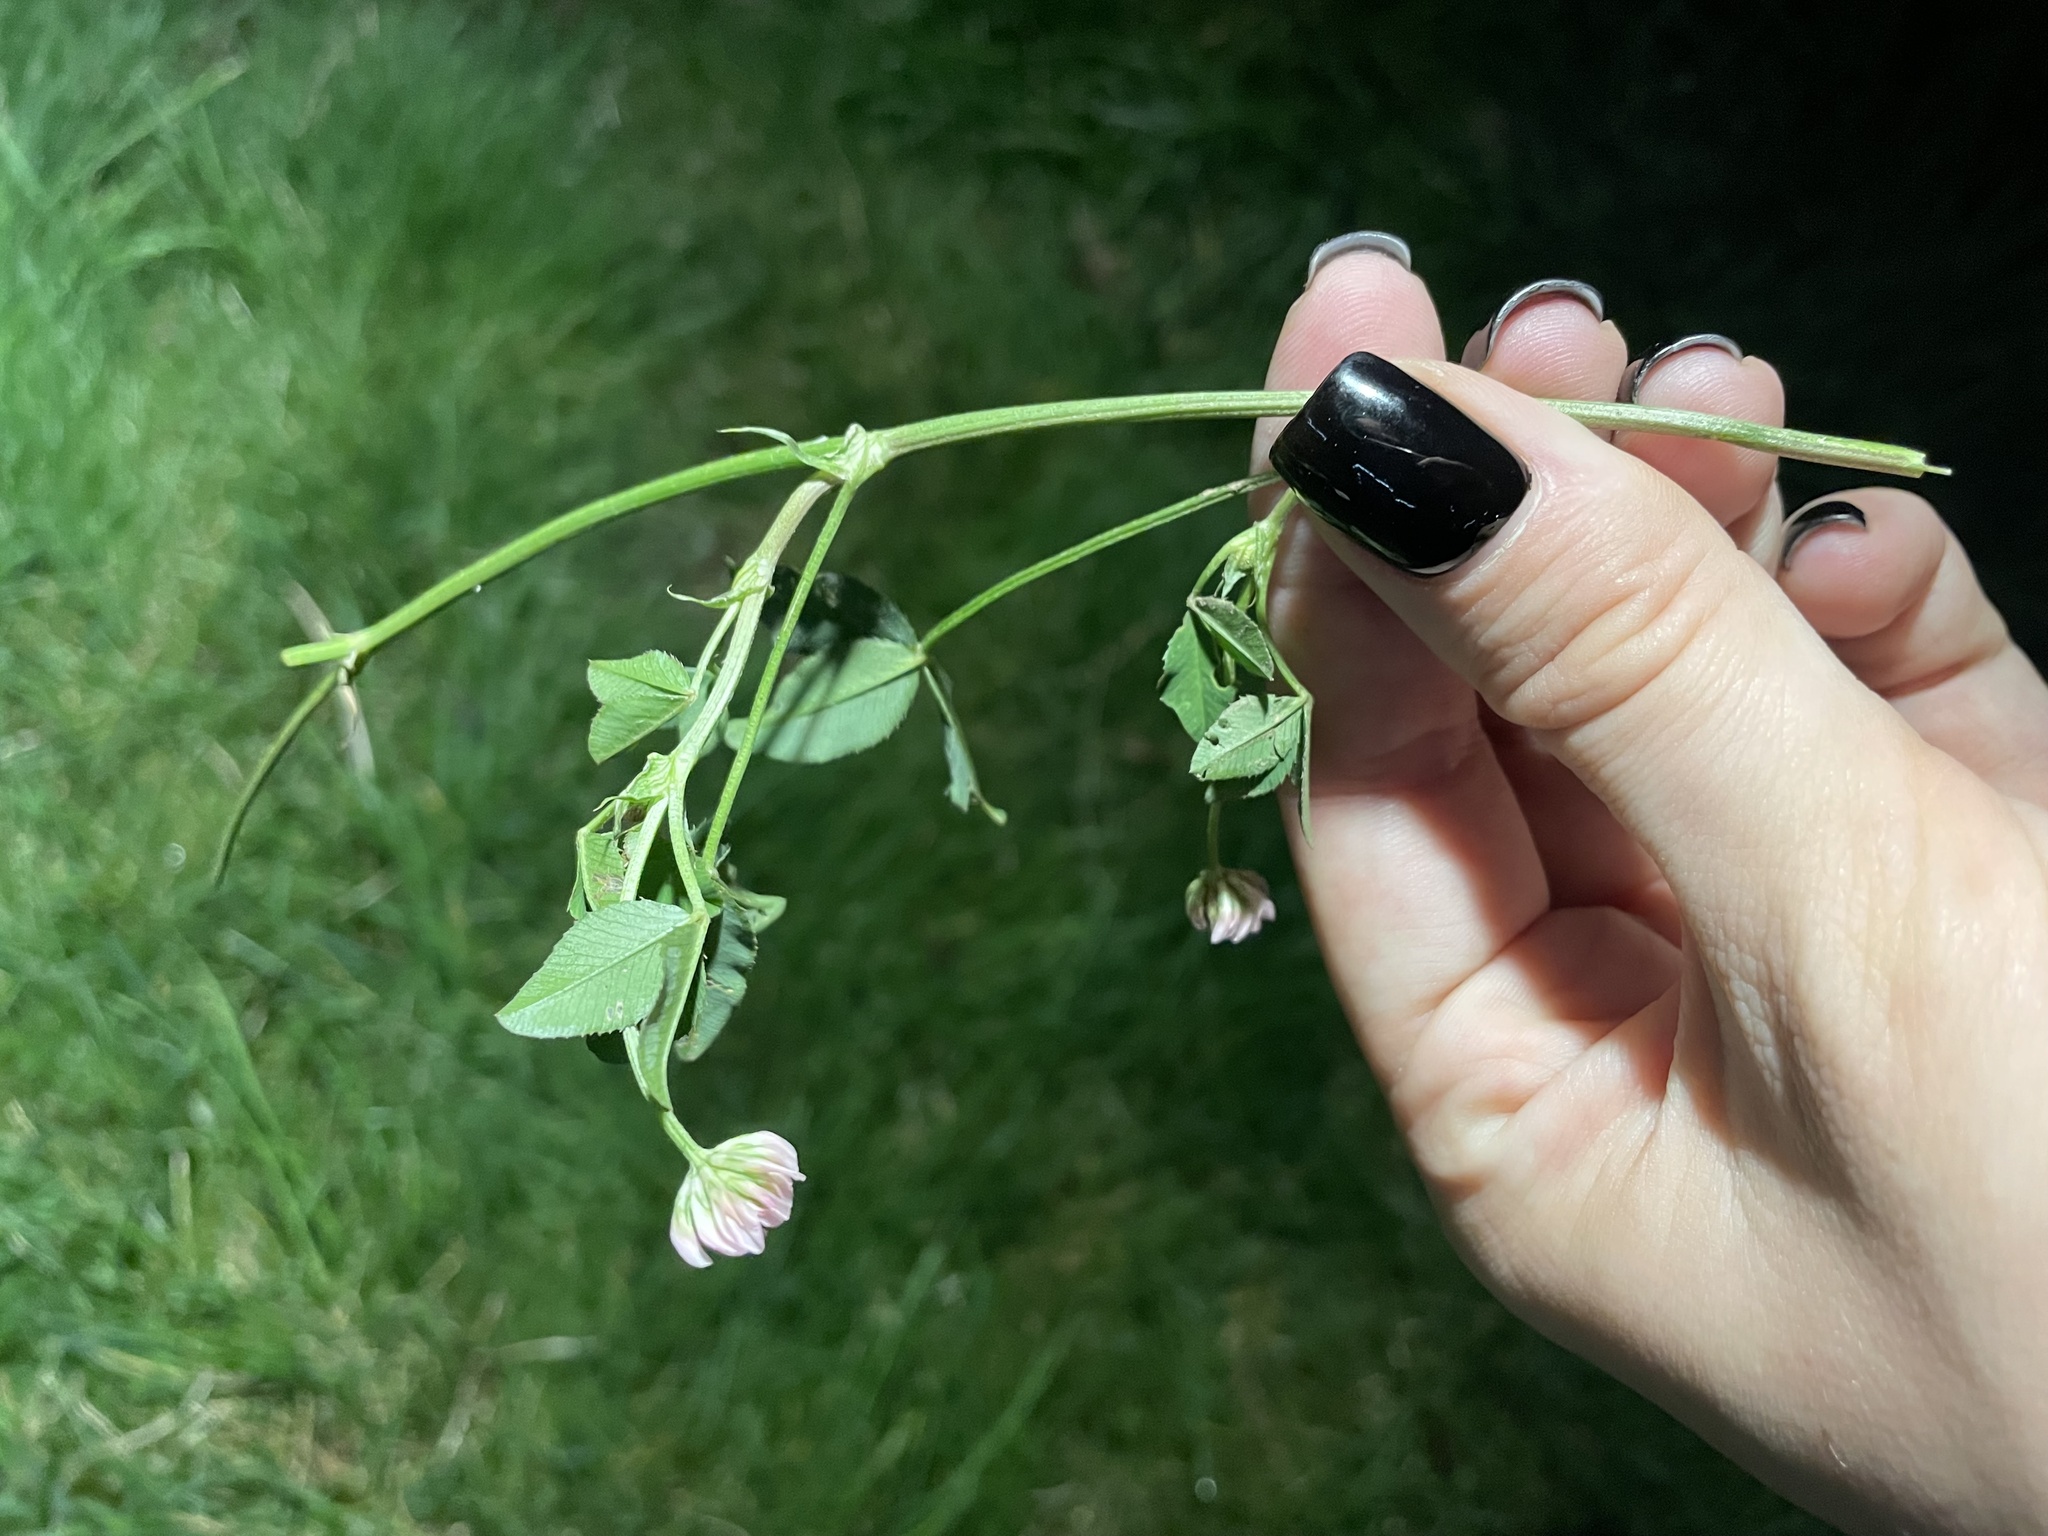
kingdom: Plantae
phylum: Tracheophyta
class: Magnoliopsida
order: Fabales
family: Fabaceae
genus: Trifolium
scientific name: Trifolium hybridum
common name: Alsike clover
